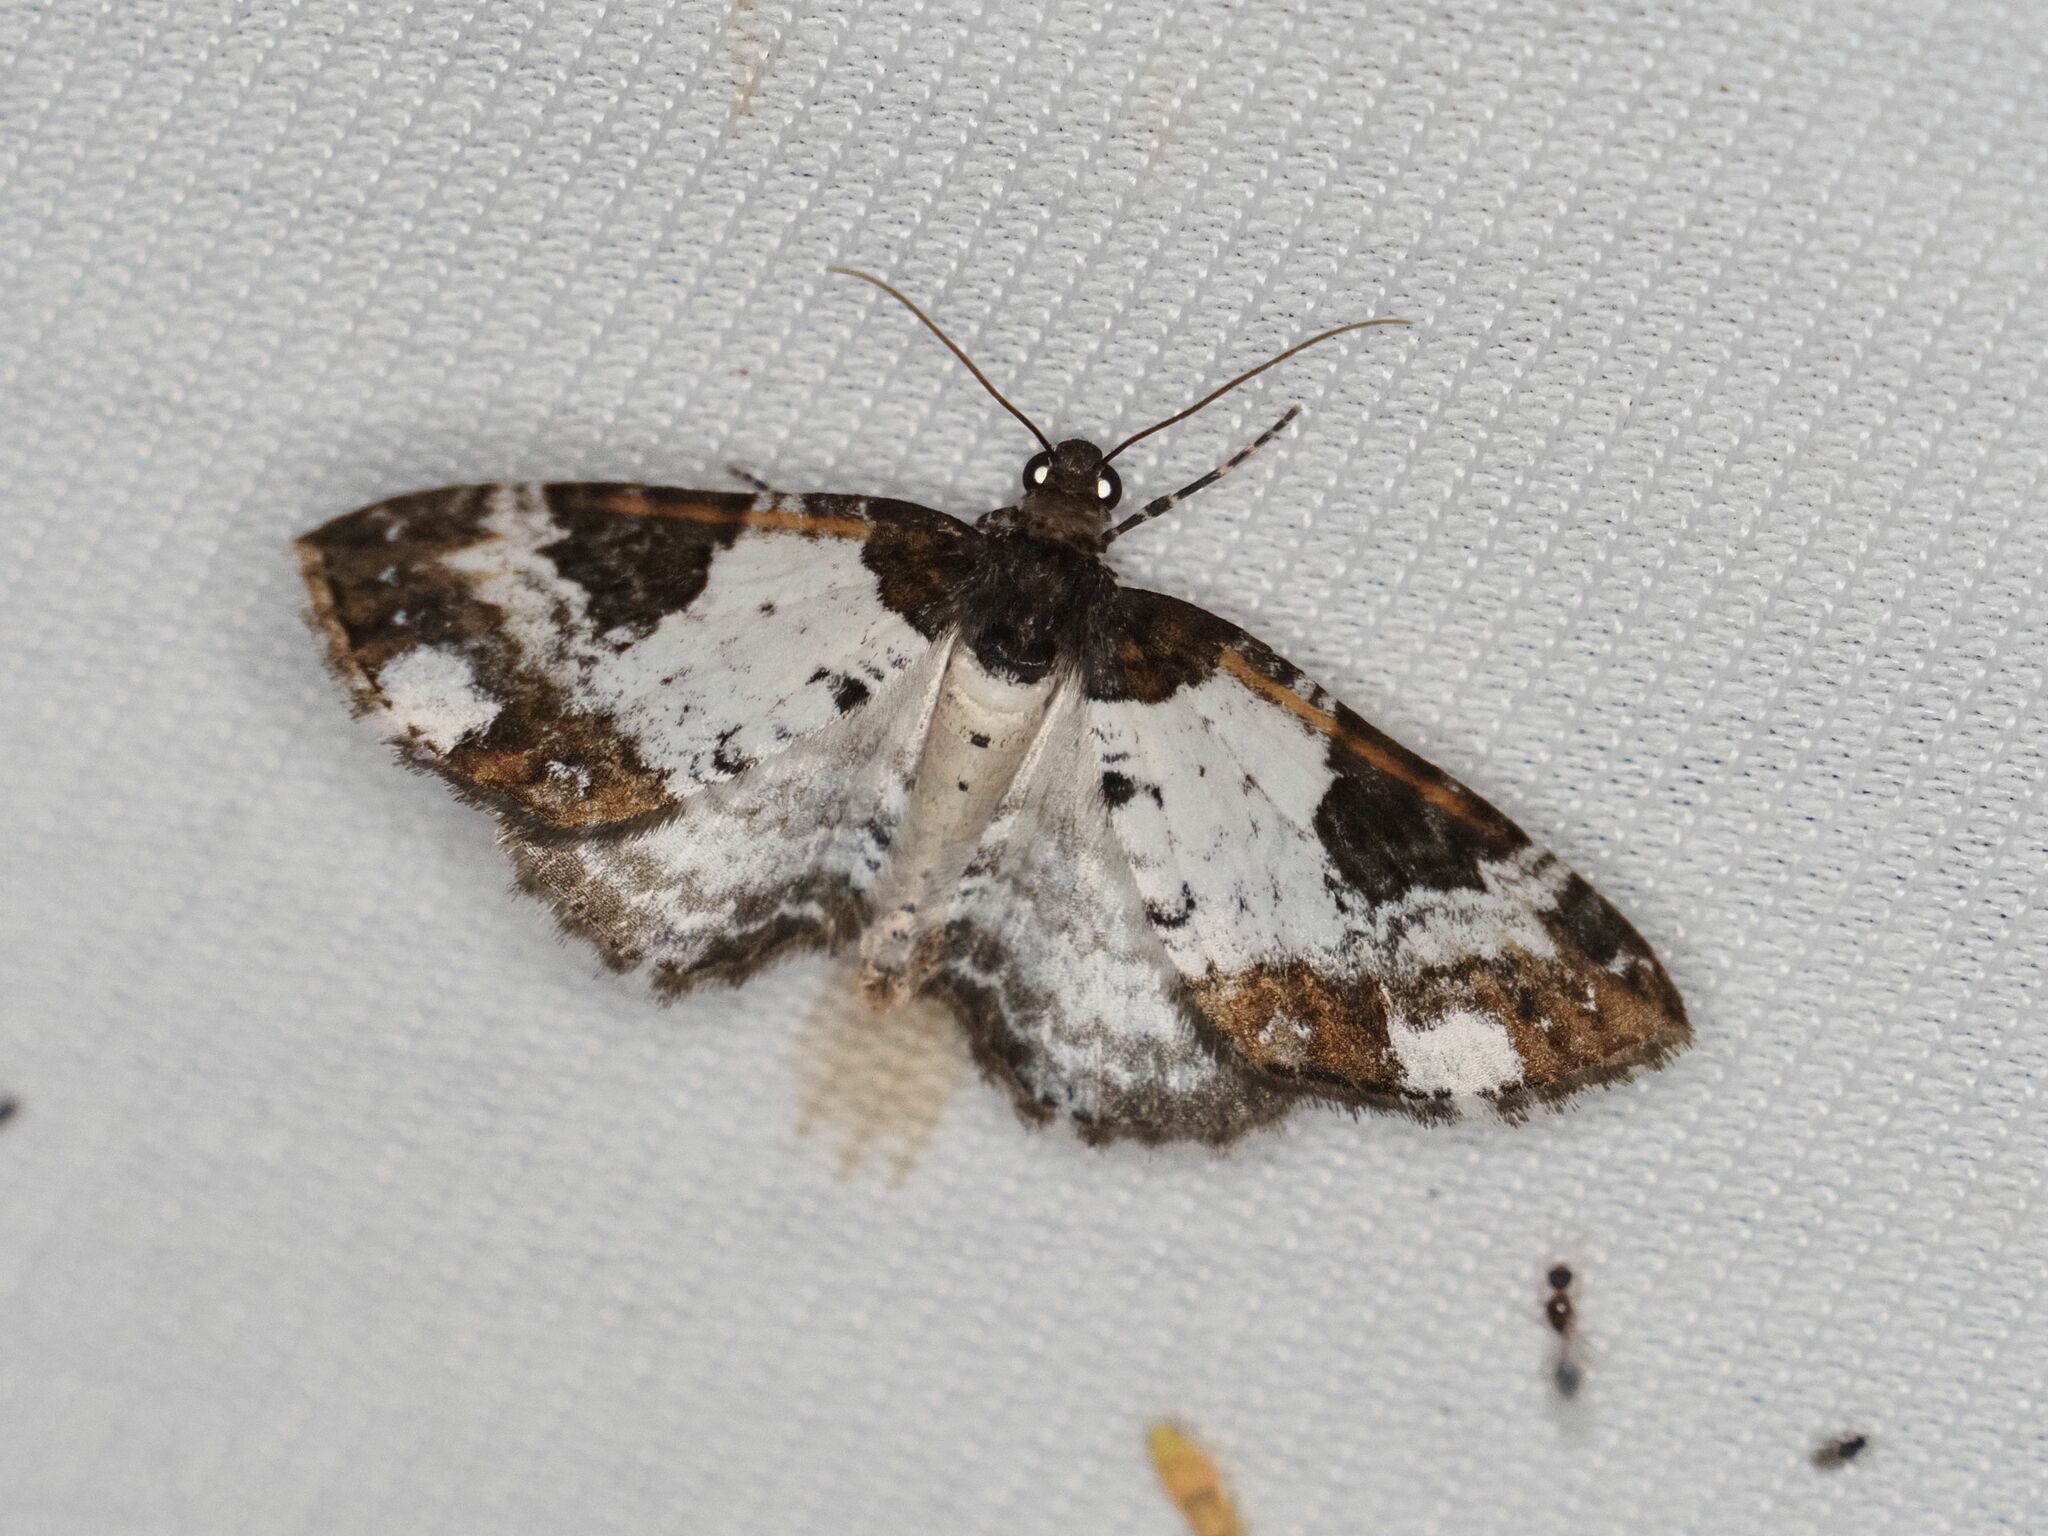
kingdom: Animalia
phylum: Arthropoda
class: Insecta
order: Lepidoptera
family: Geometridae
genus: Melanthia
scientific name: Melanthia procellata
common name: Pretty chalk carpet
